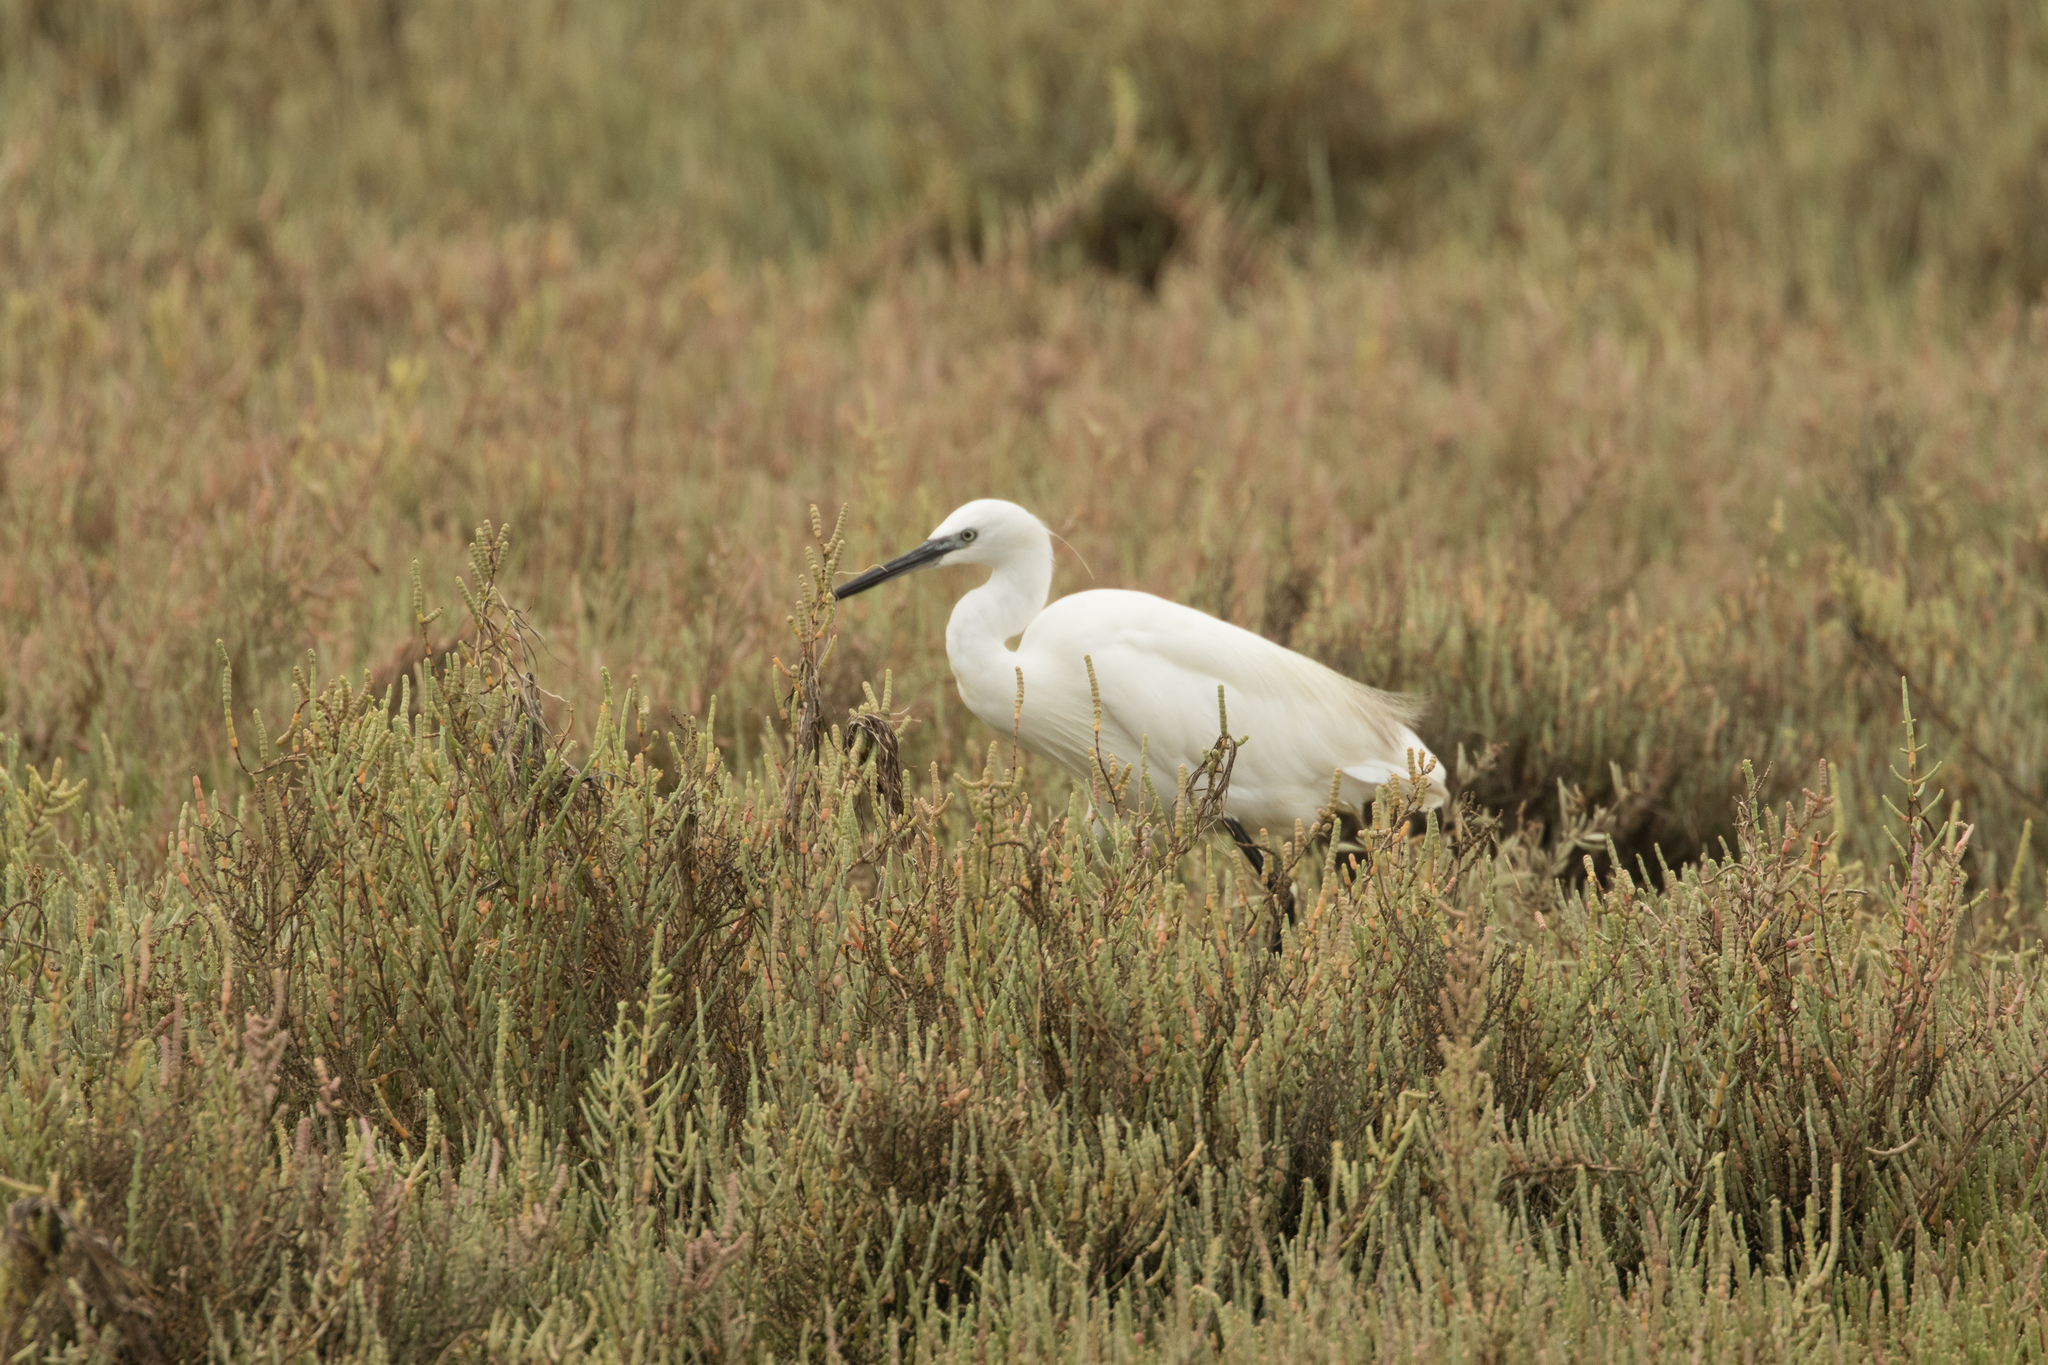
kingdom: Animalia
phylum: Chordata
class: Aves
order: Pelecaniformes
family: Ardeidae
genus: Egretta
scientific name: Egretta garzetta
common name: Little egret
